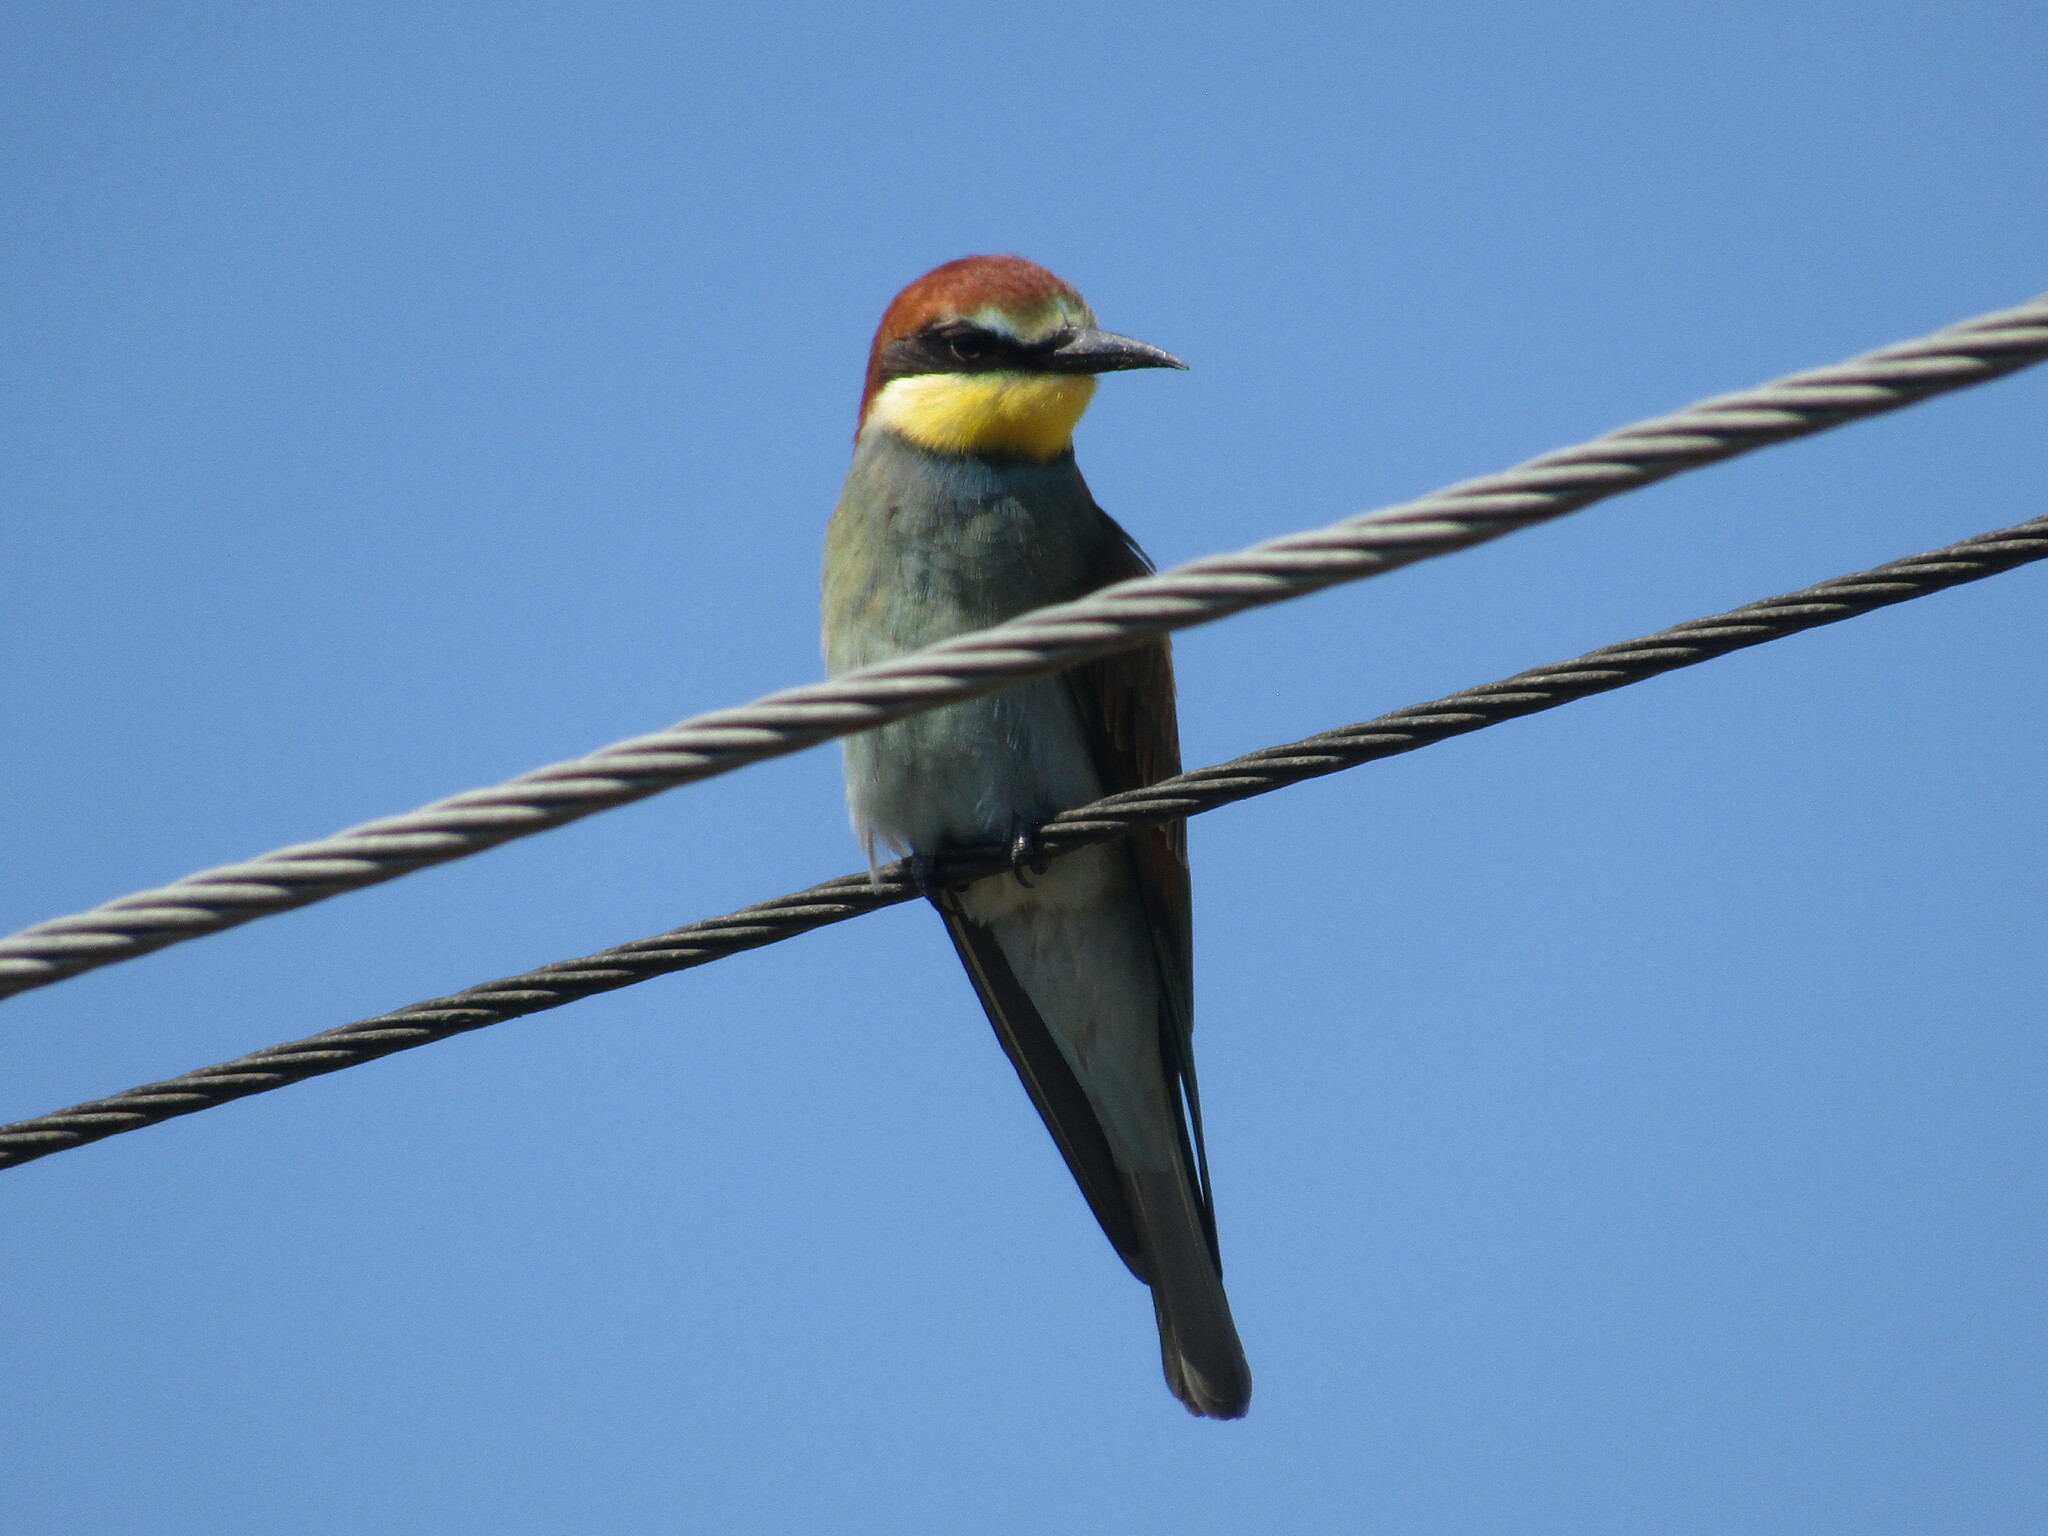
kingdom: Animalia
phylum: Chordata
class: Aves
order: Coraciiformes
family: Meropidae
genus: Merops
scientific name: Merops apiaster
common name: European bee-eater
